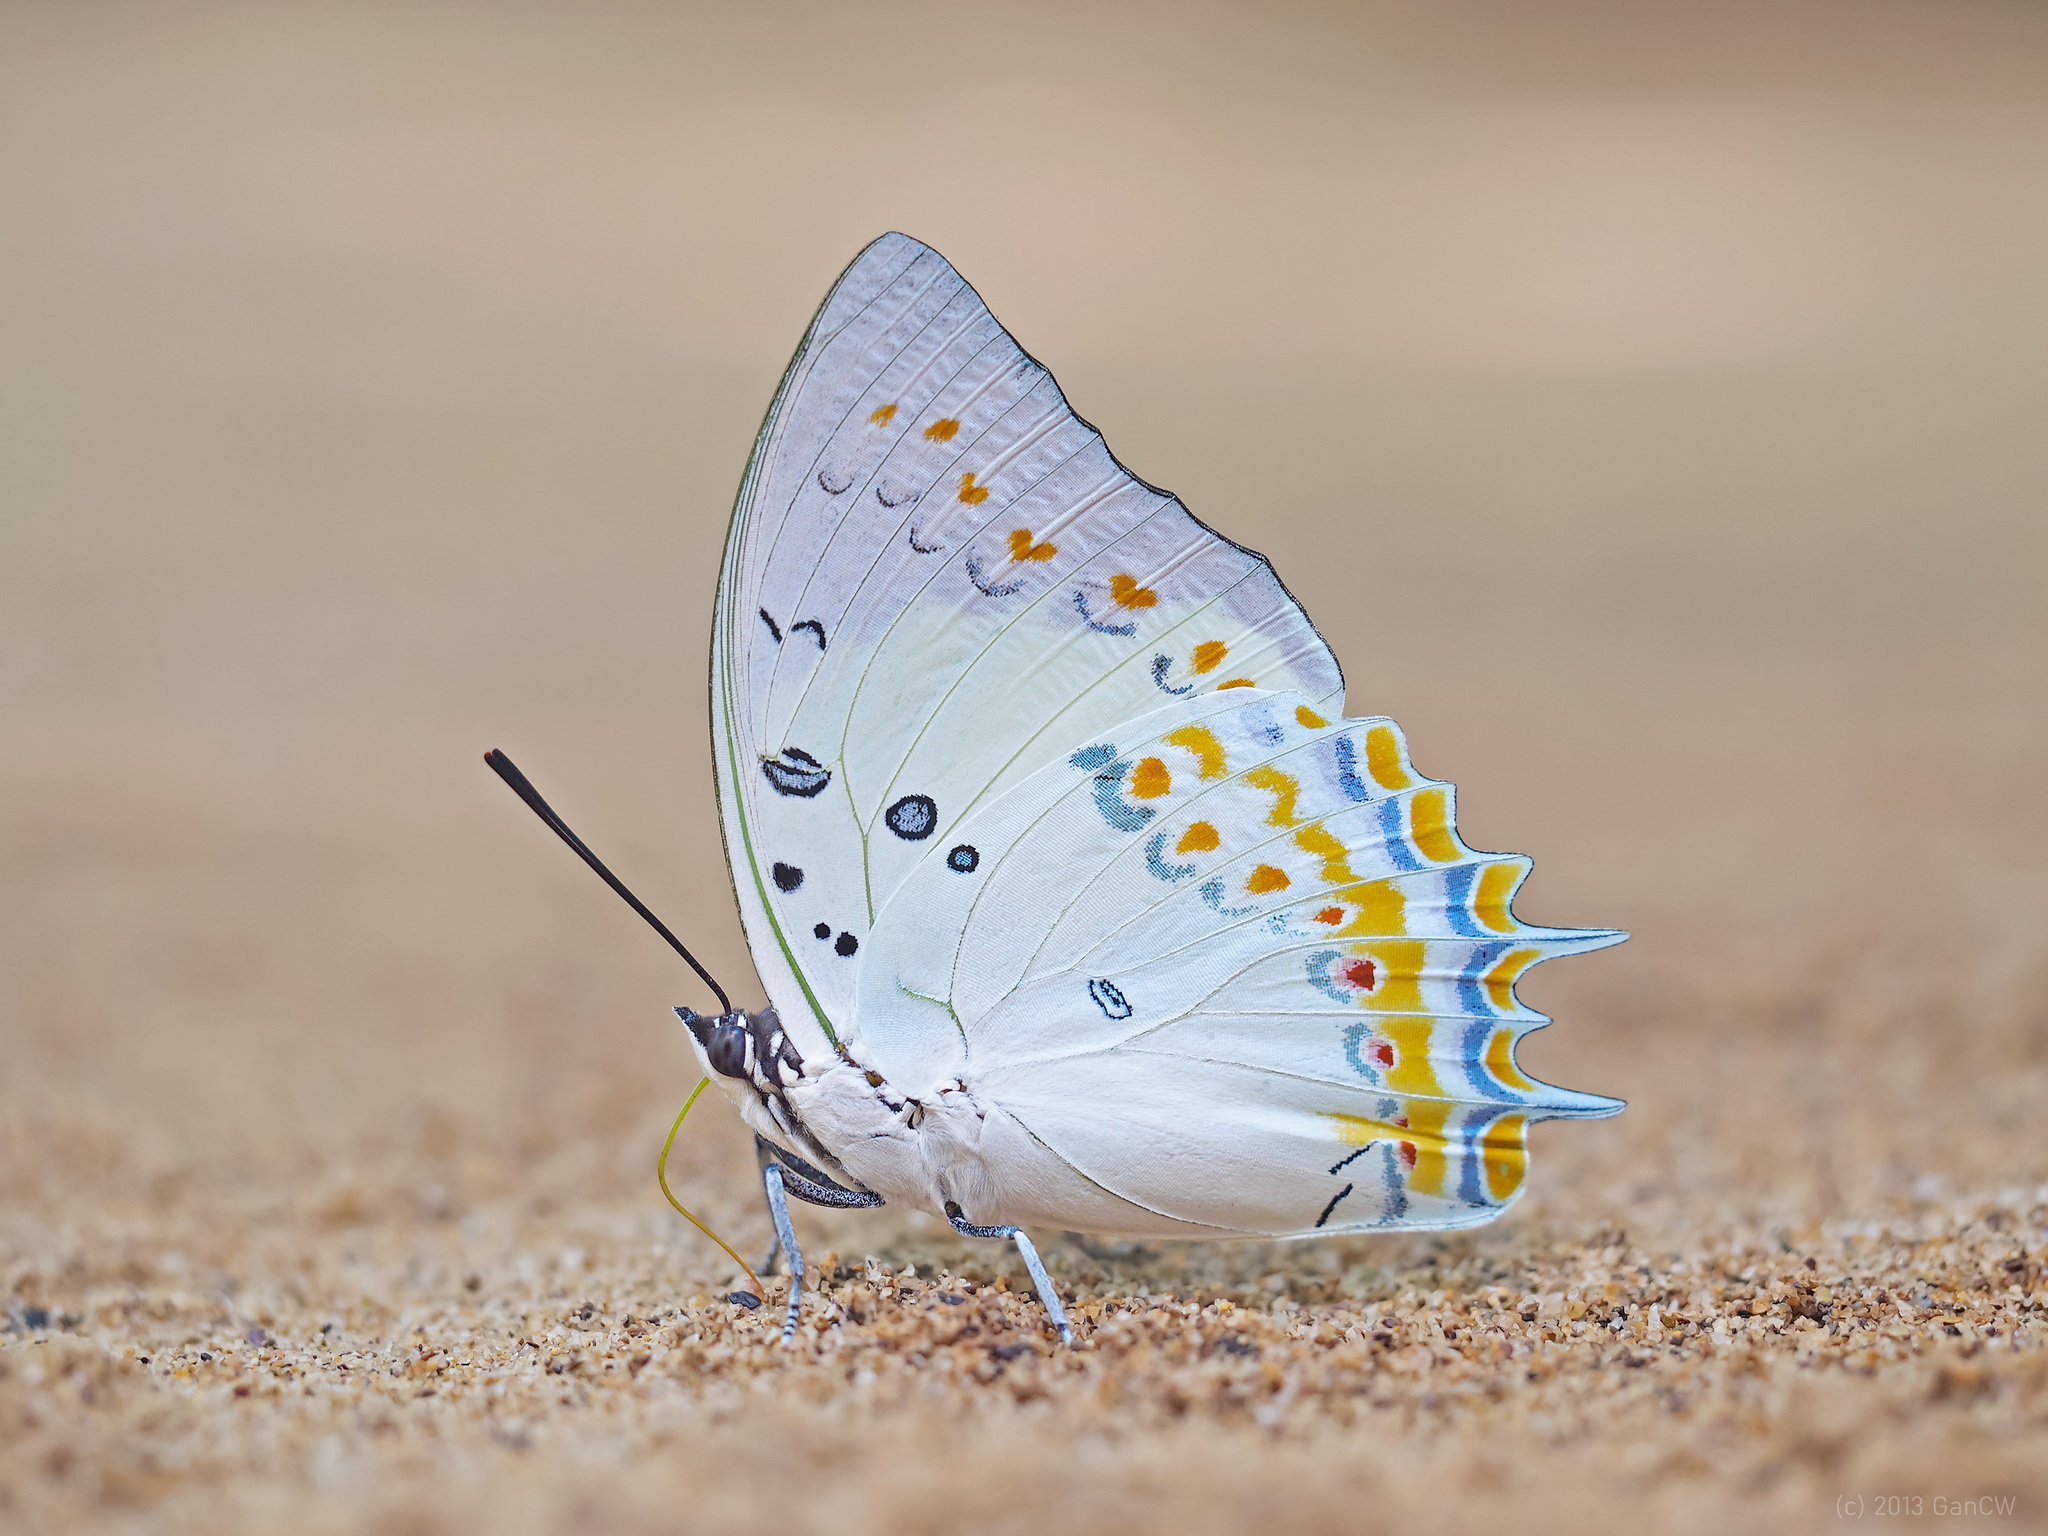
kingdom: Animalia
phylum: Arthropoda
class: Insecta
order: Lepidoptera
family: Nymphalidae
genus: Polyura
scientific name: Polyura delphis
